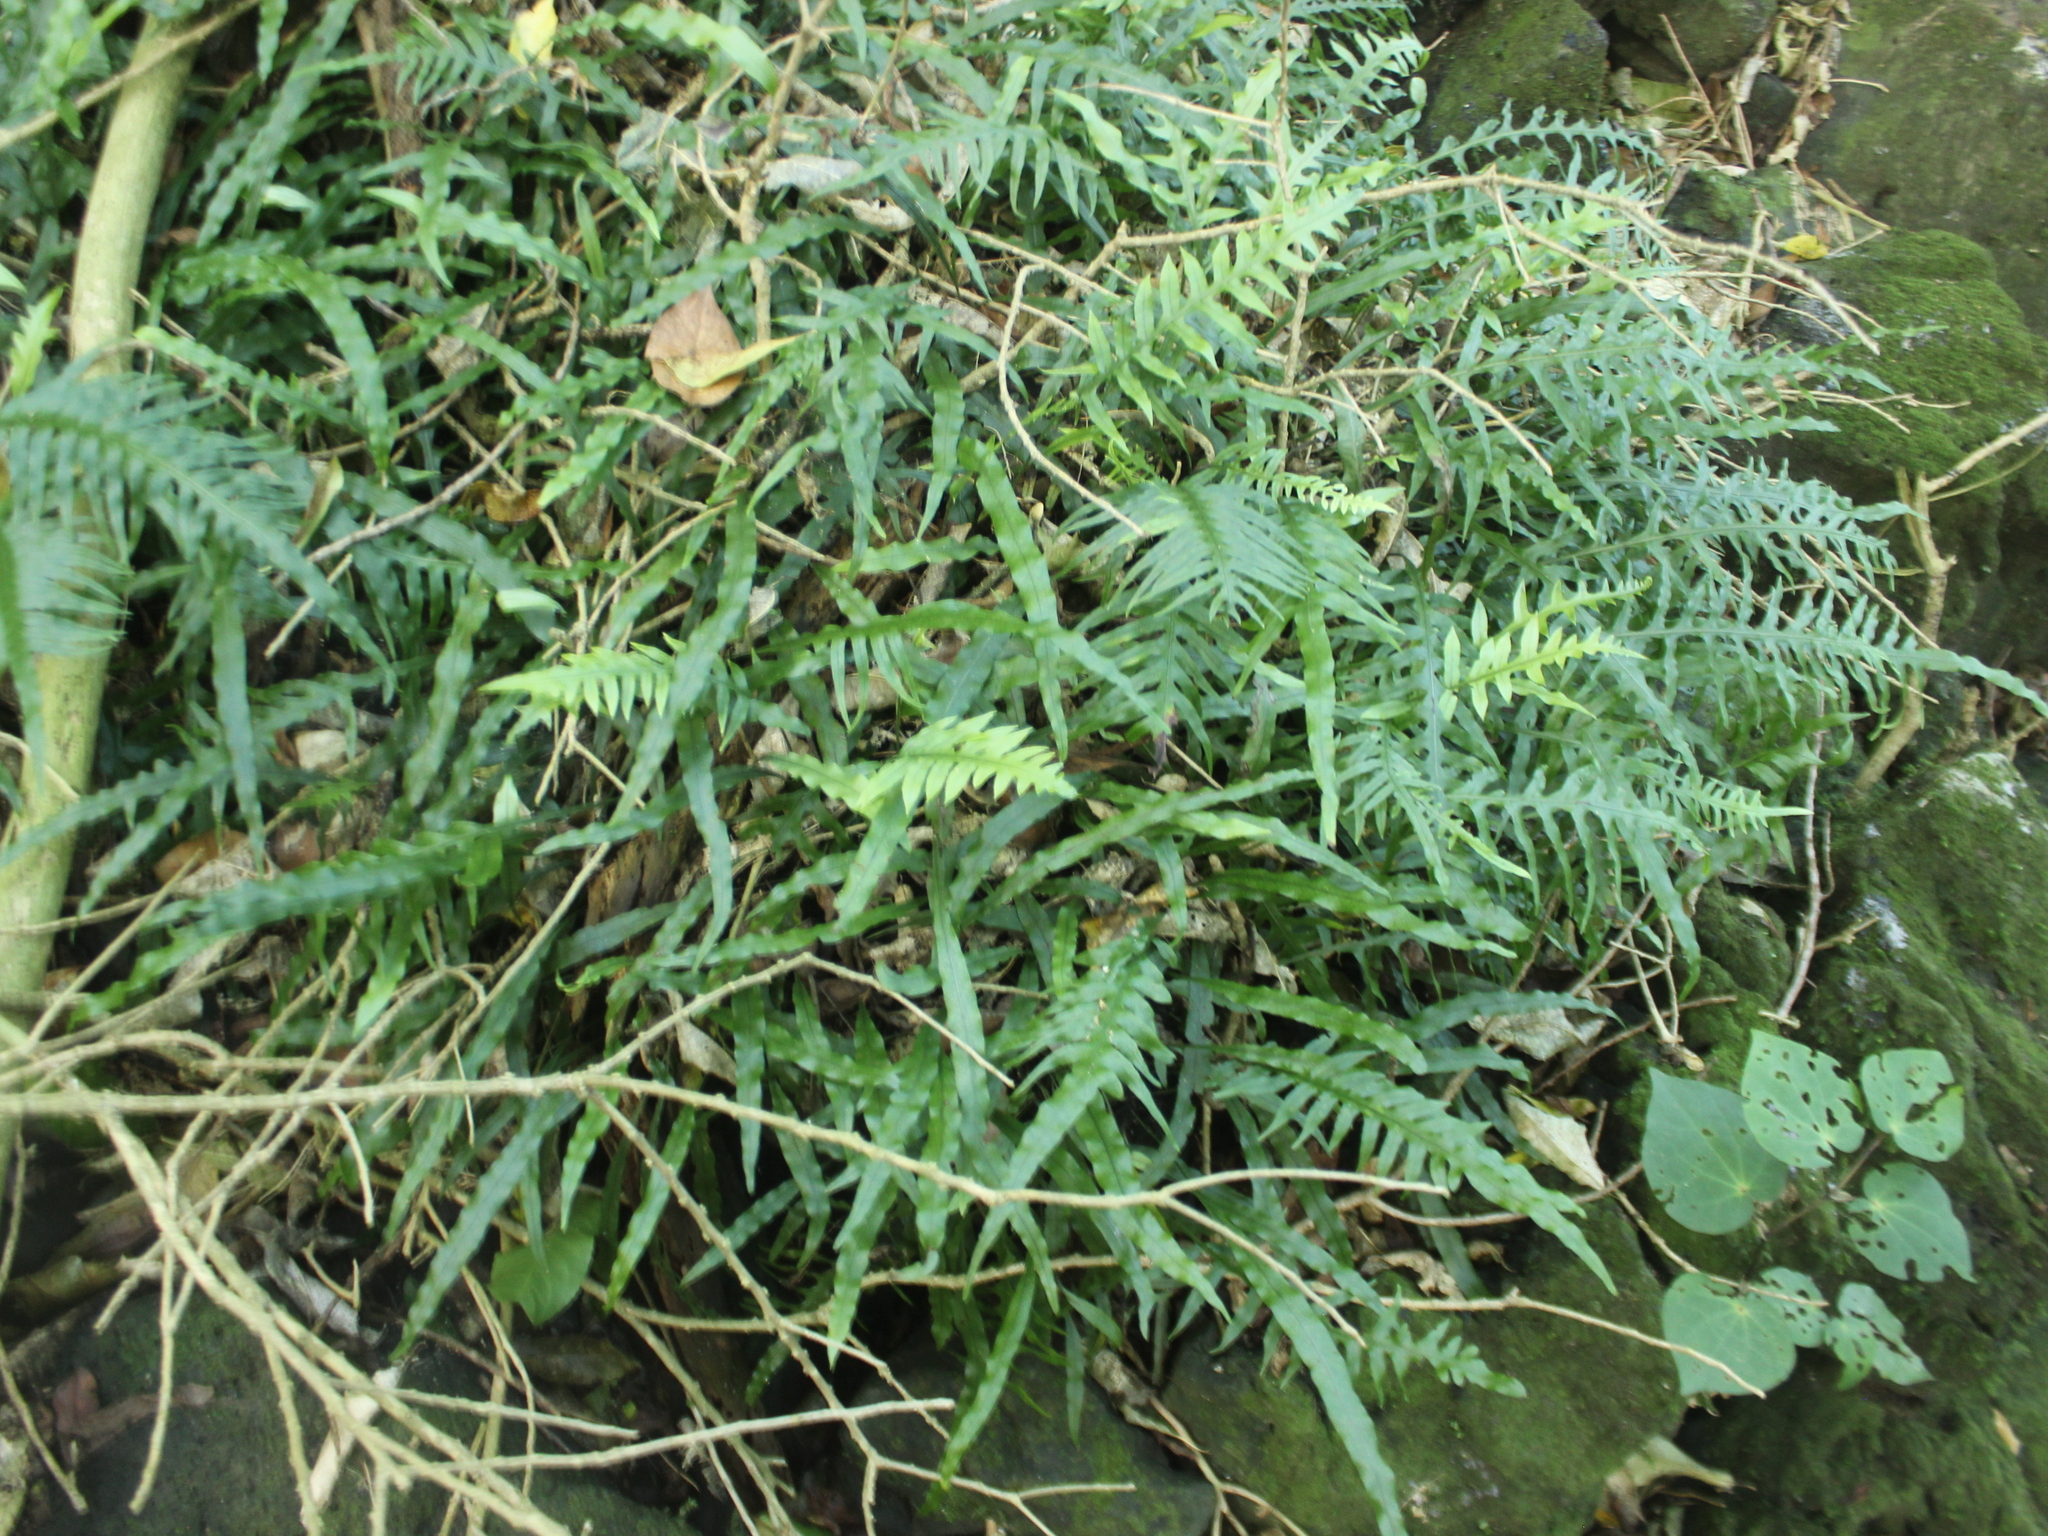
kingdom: Plantae
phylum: Tracheophyta
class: Polypodiopsida
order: Polypodiales
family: Polypodiaceae
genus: Lecanopteris
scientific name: Lecanopteris scandens
